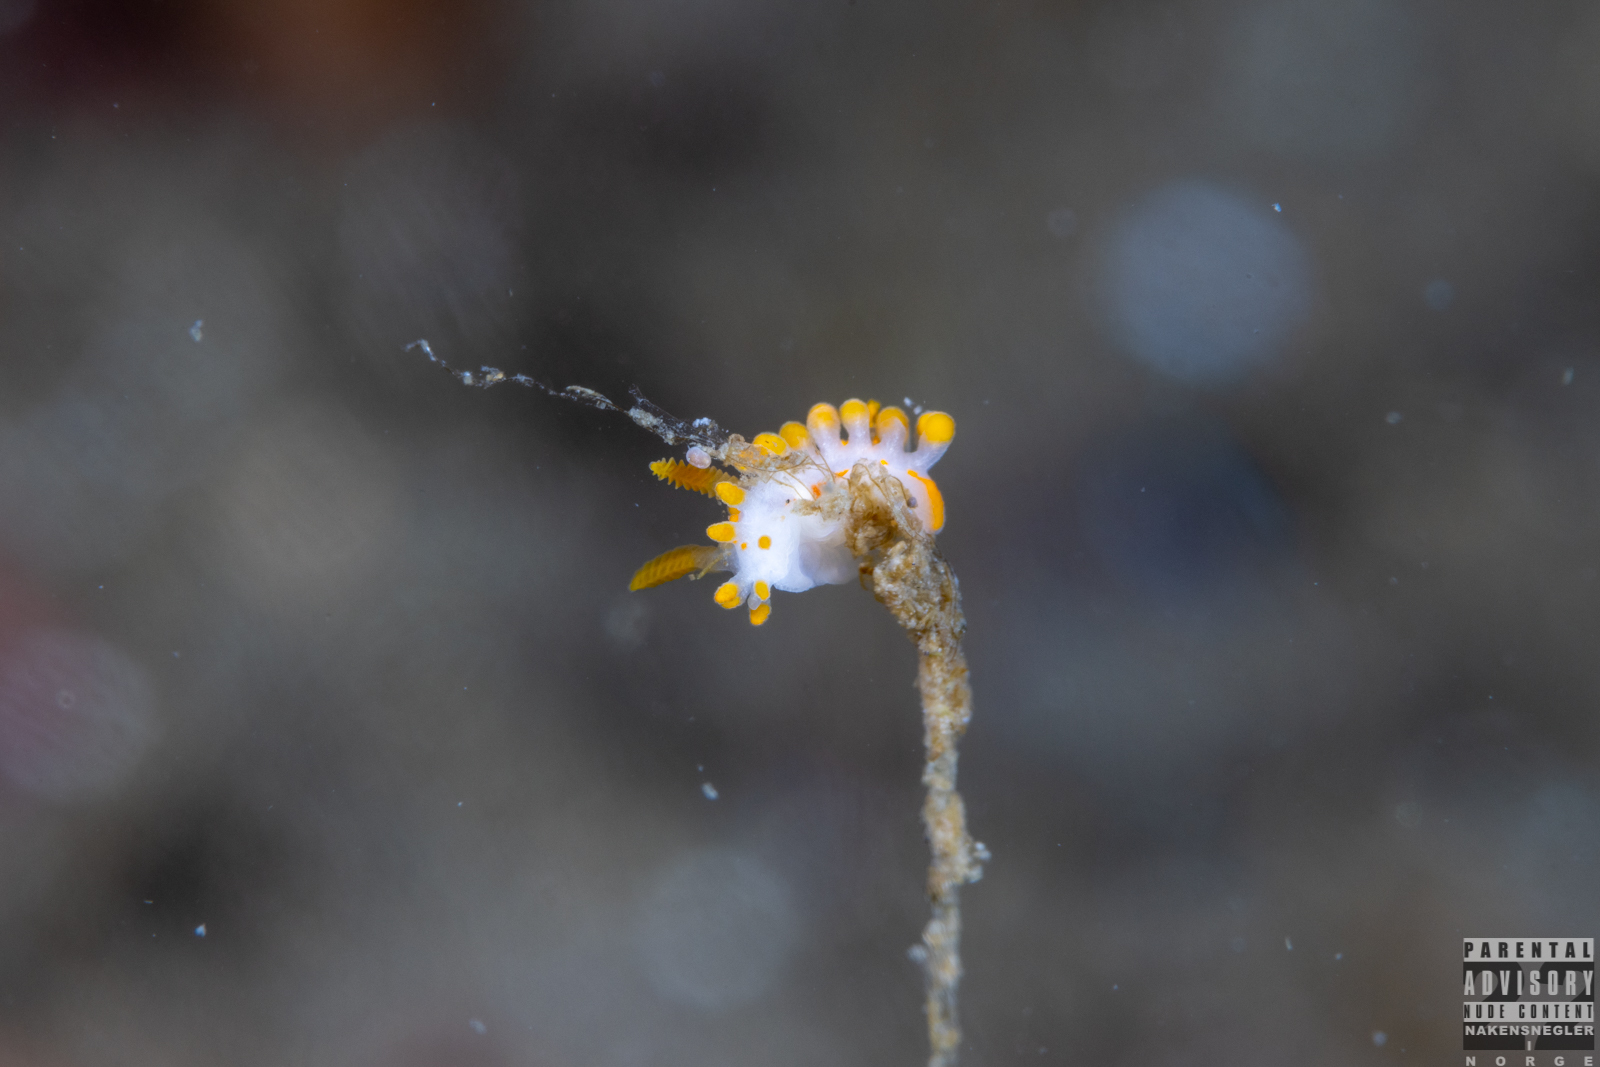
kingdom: Animalia
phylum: Mollusca
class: Gastropoda
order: Nudibranchia
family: Polyceridae
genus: Limacia
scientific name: Limacia clavigera
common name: Orange-clubbed sea slug
